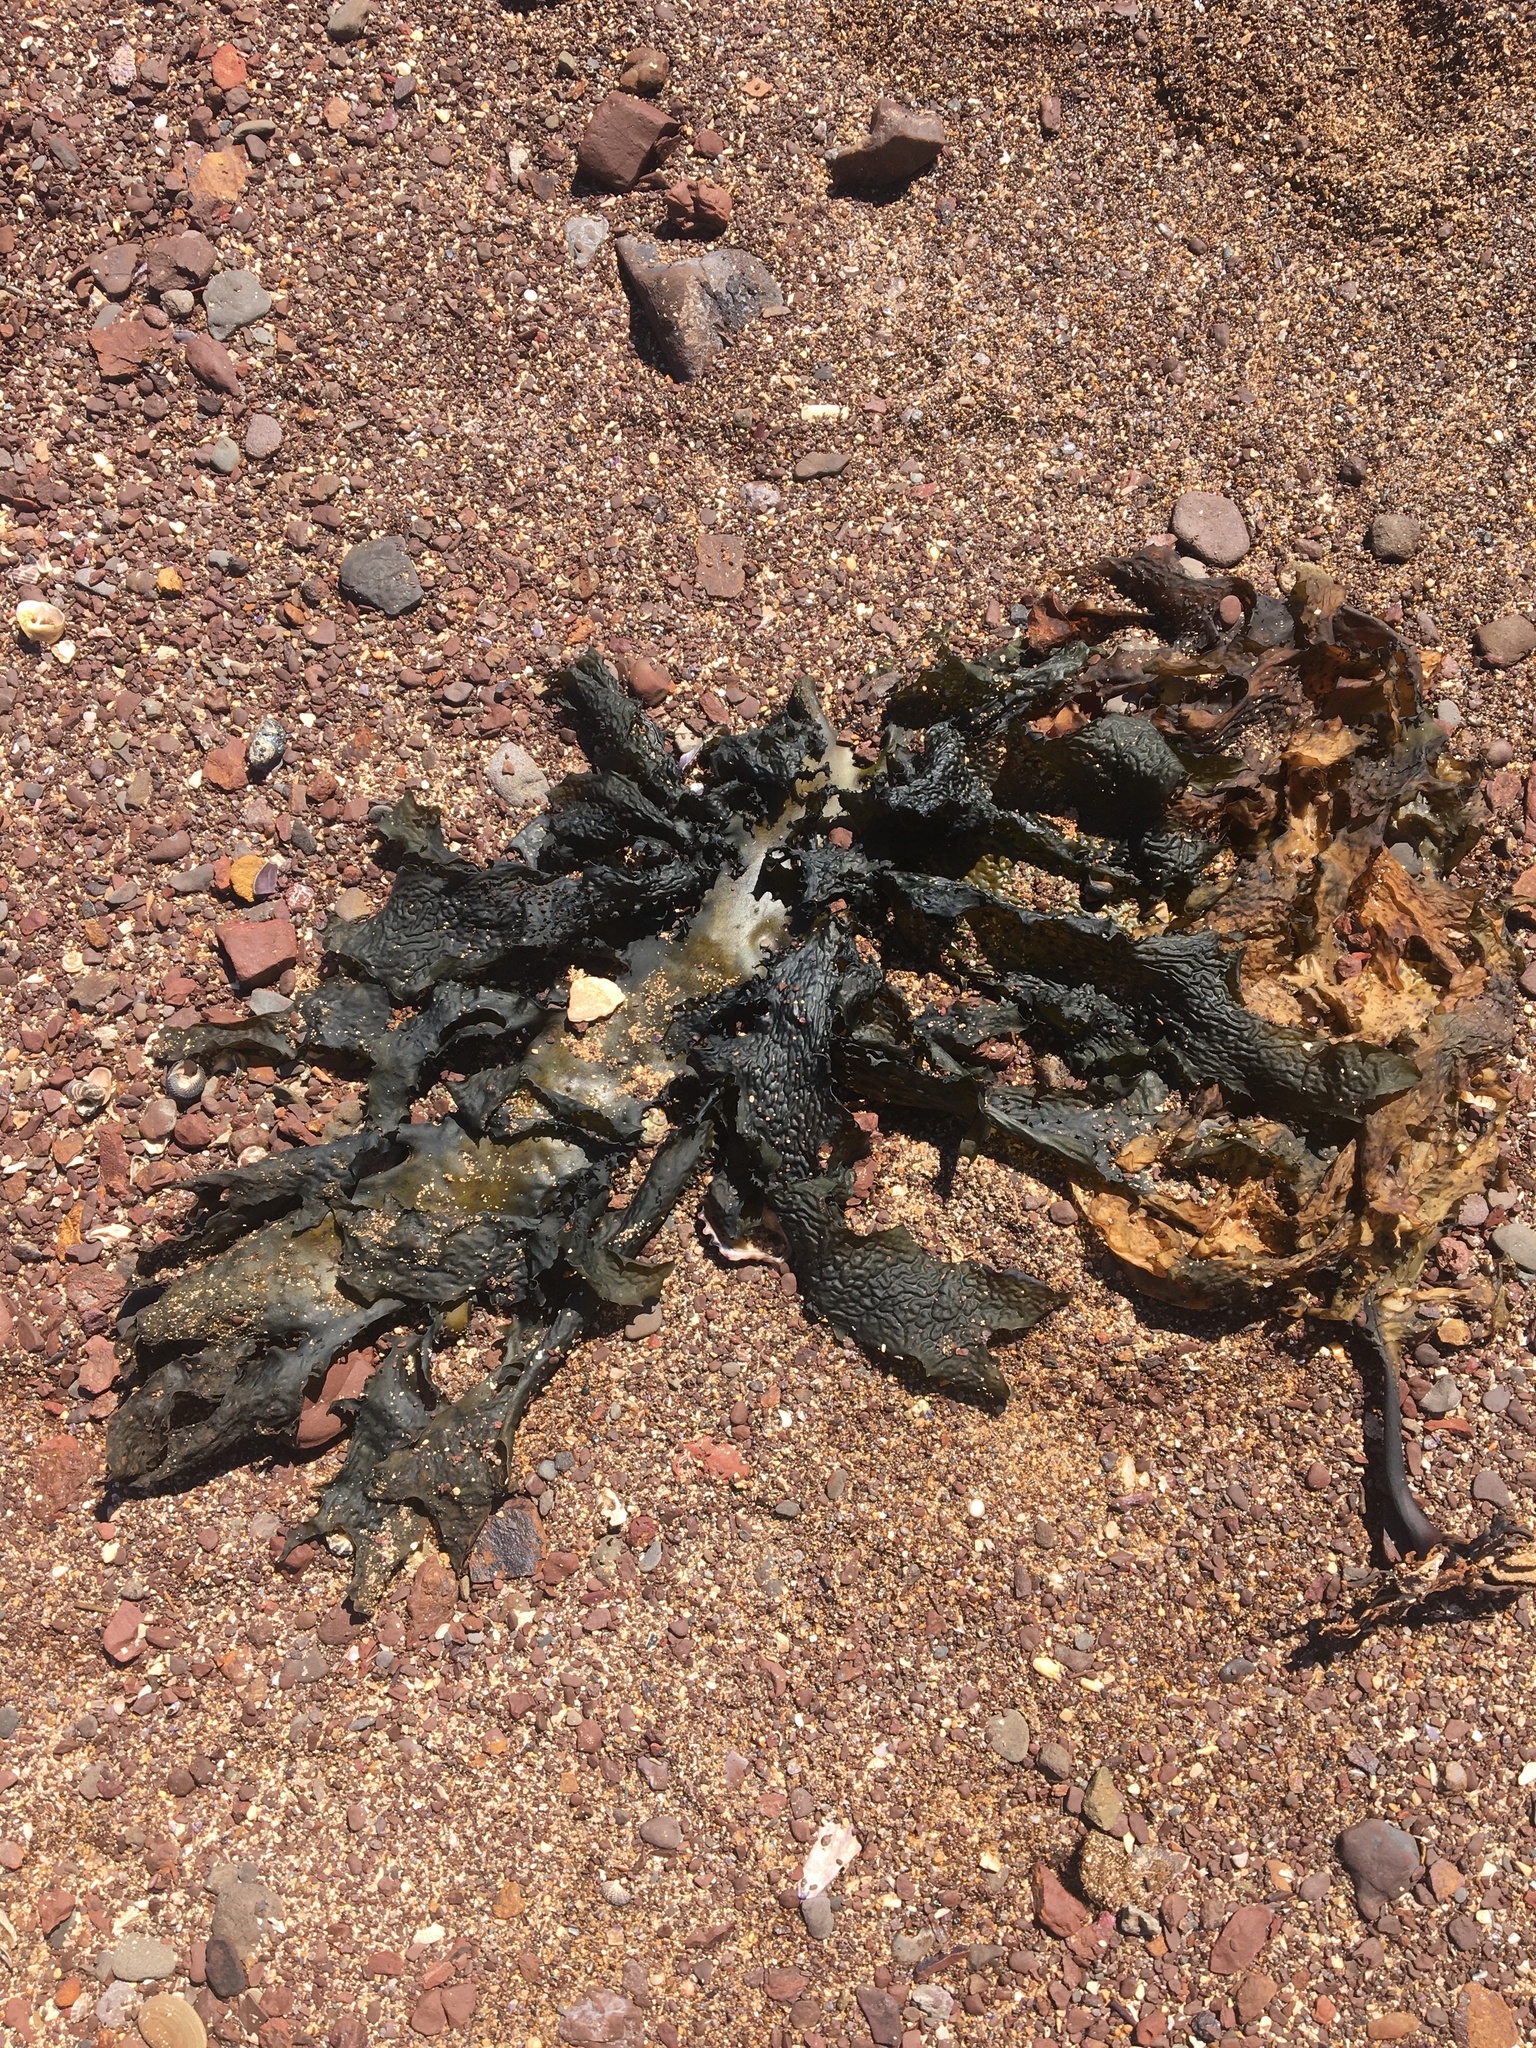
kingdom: Chromista
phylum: Ochrophyta
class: Phaeophyceae
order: Laminariales
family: Lessoniaceae
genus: Ecklonia
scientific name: Ecklonia radiata
